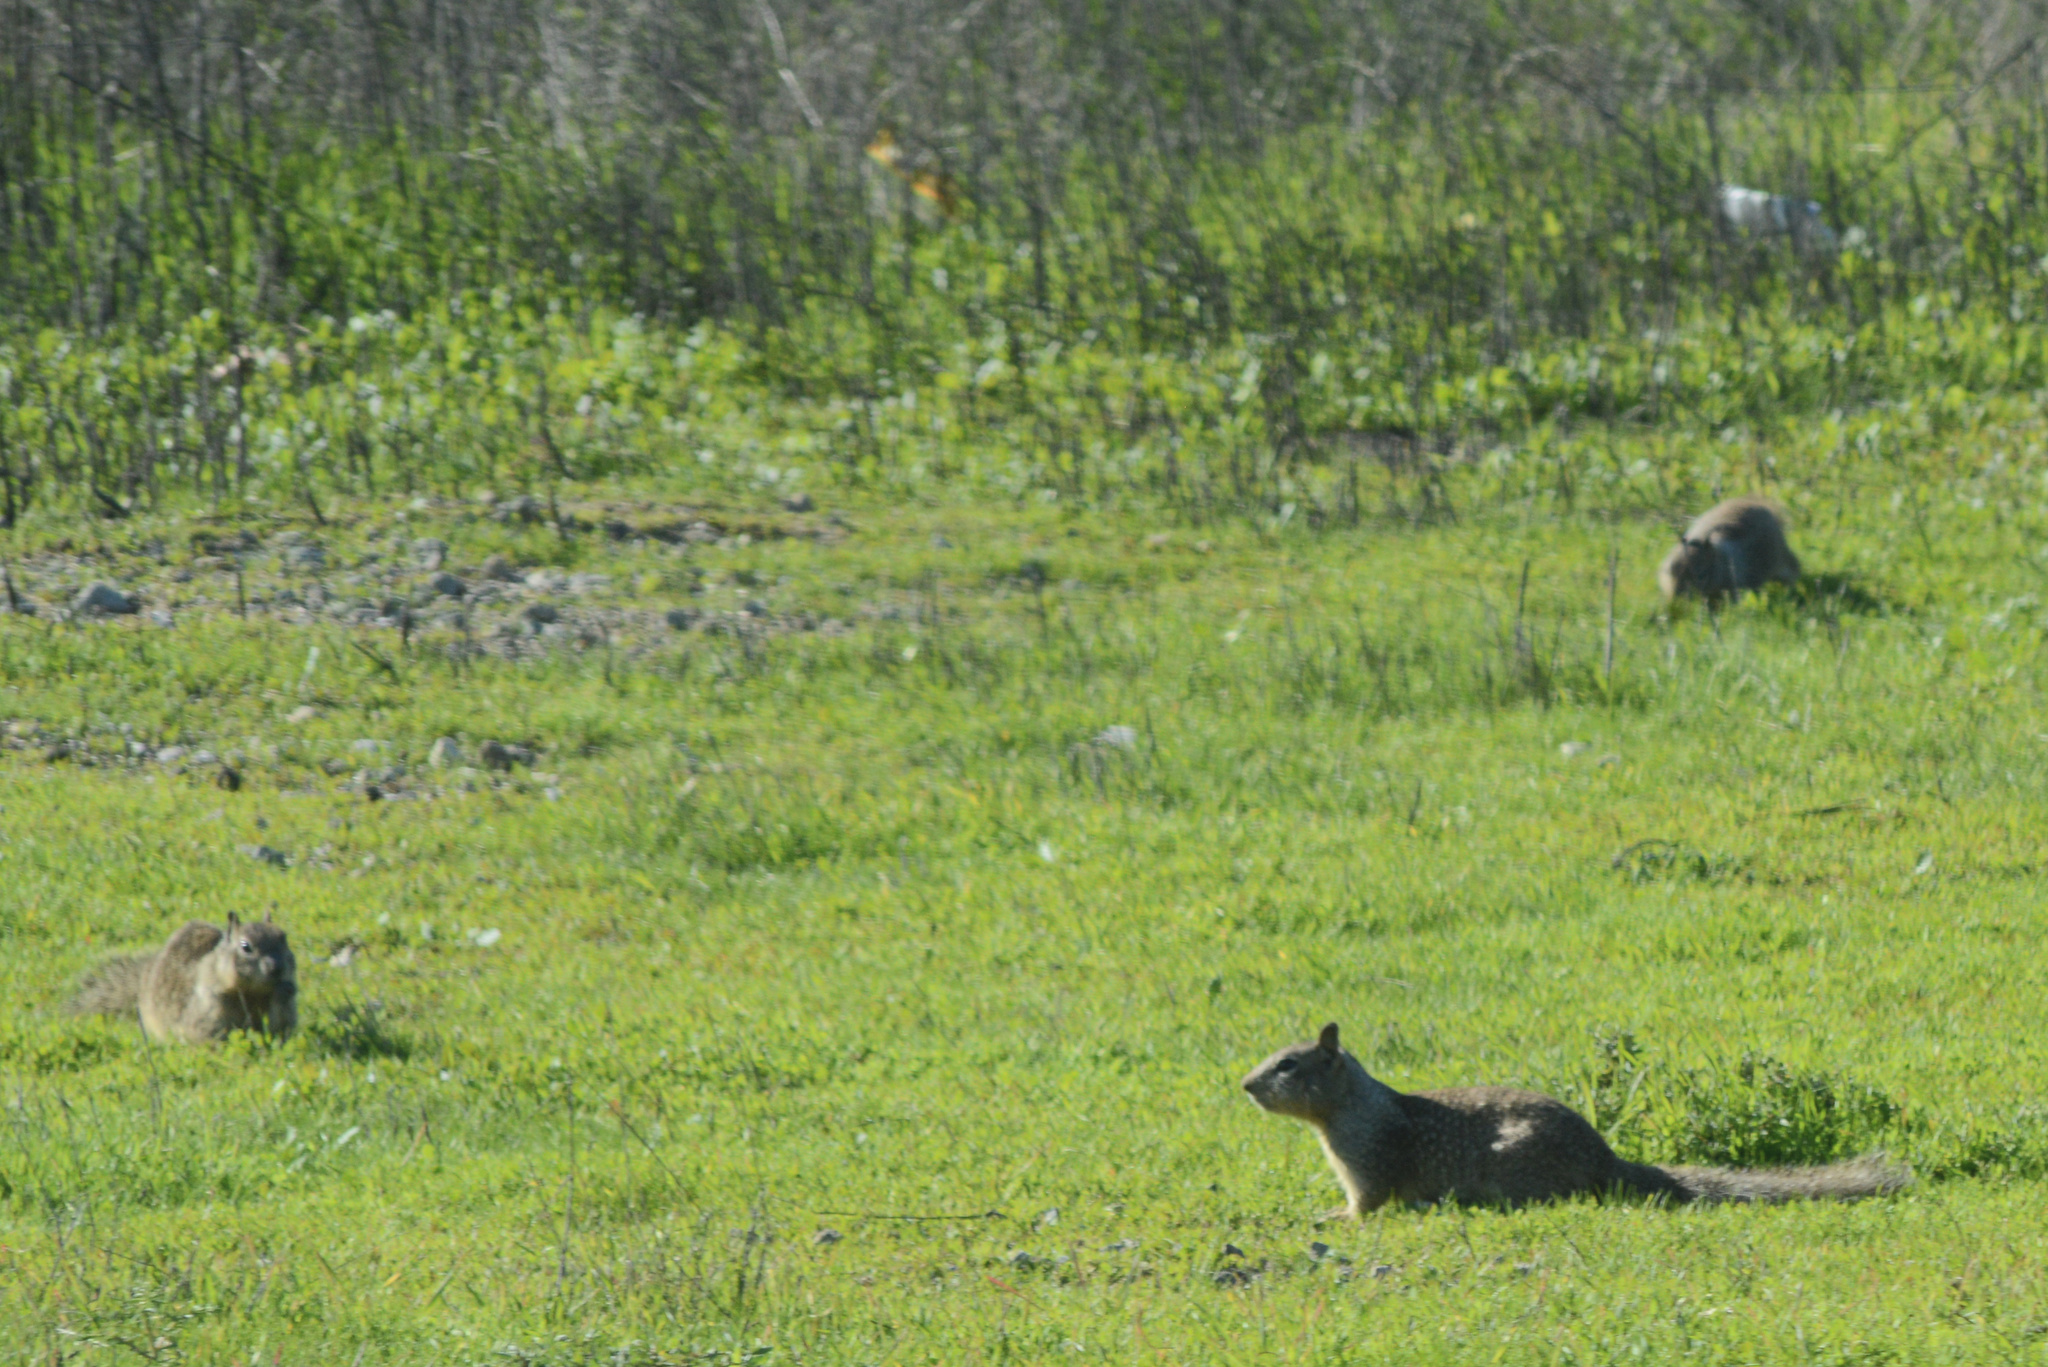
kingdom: Animalia
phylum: Chordata
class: Mammalia
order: Rodentia
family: Sciuridae
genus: Otospermophilus
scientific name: Otospermophilus beecheyi
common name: California ground squirrel
